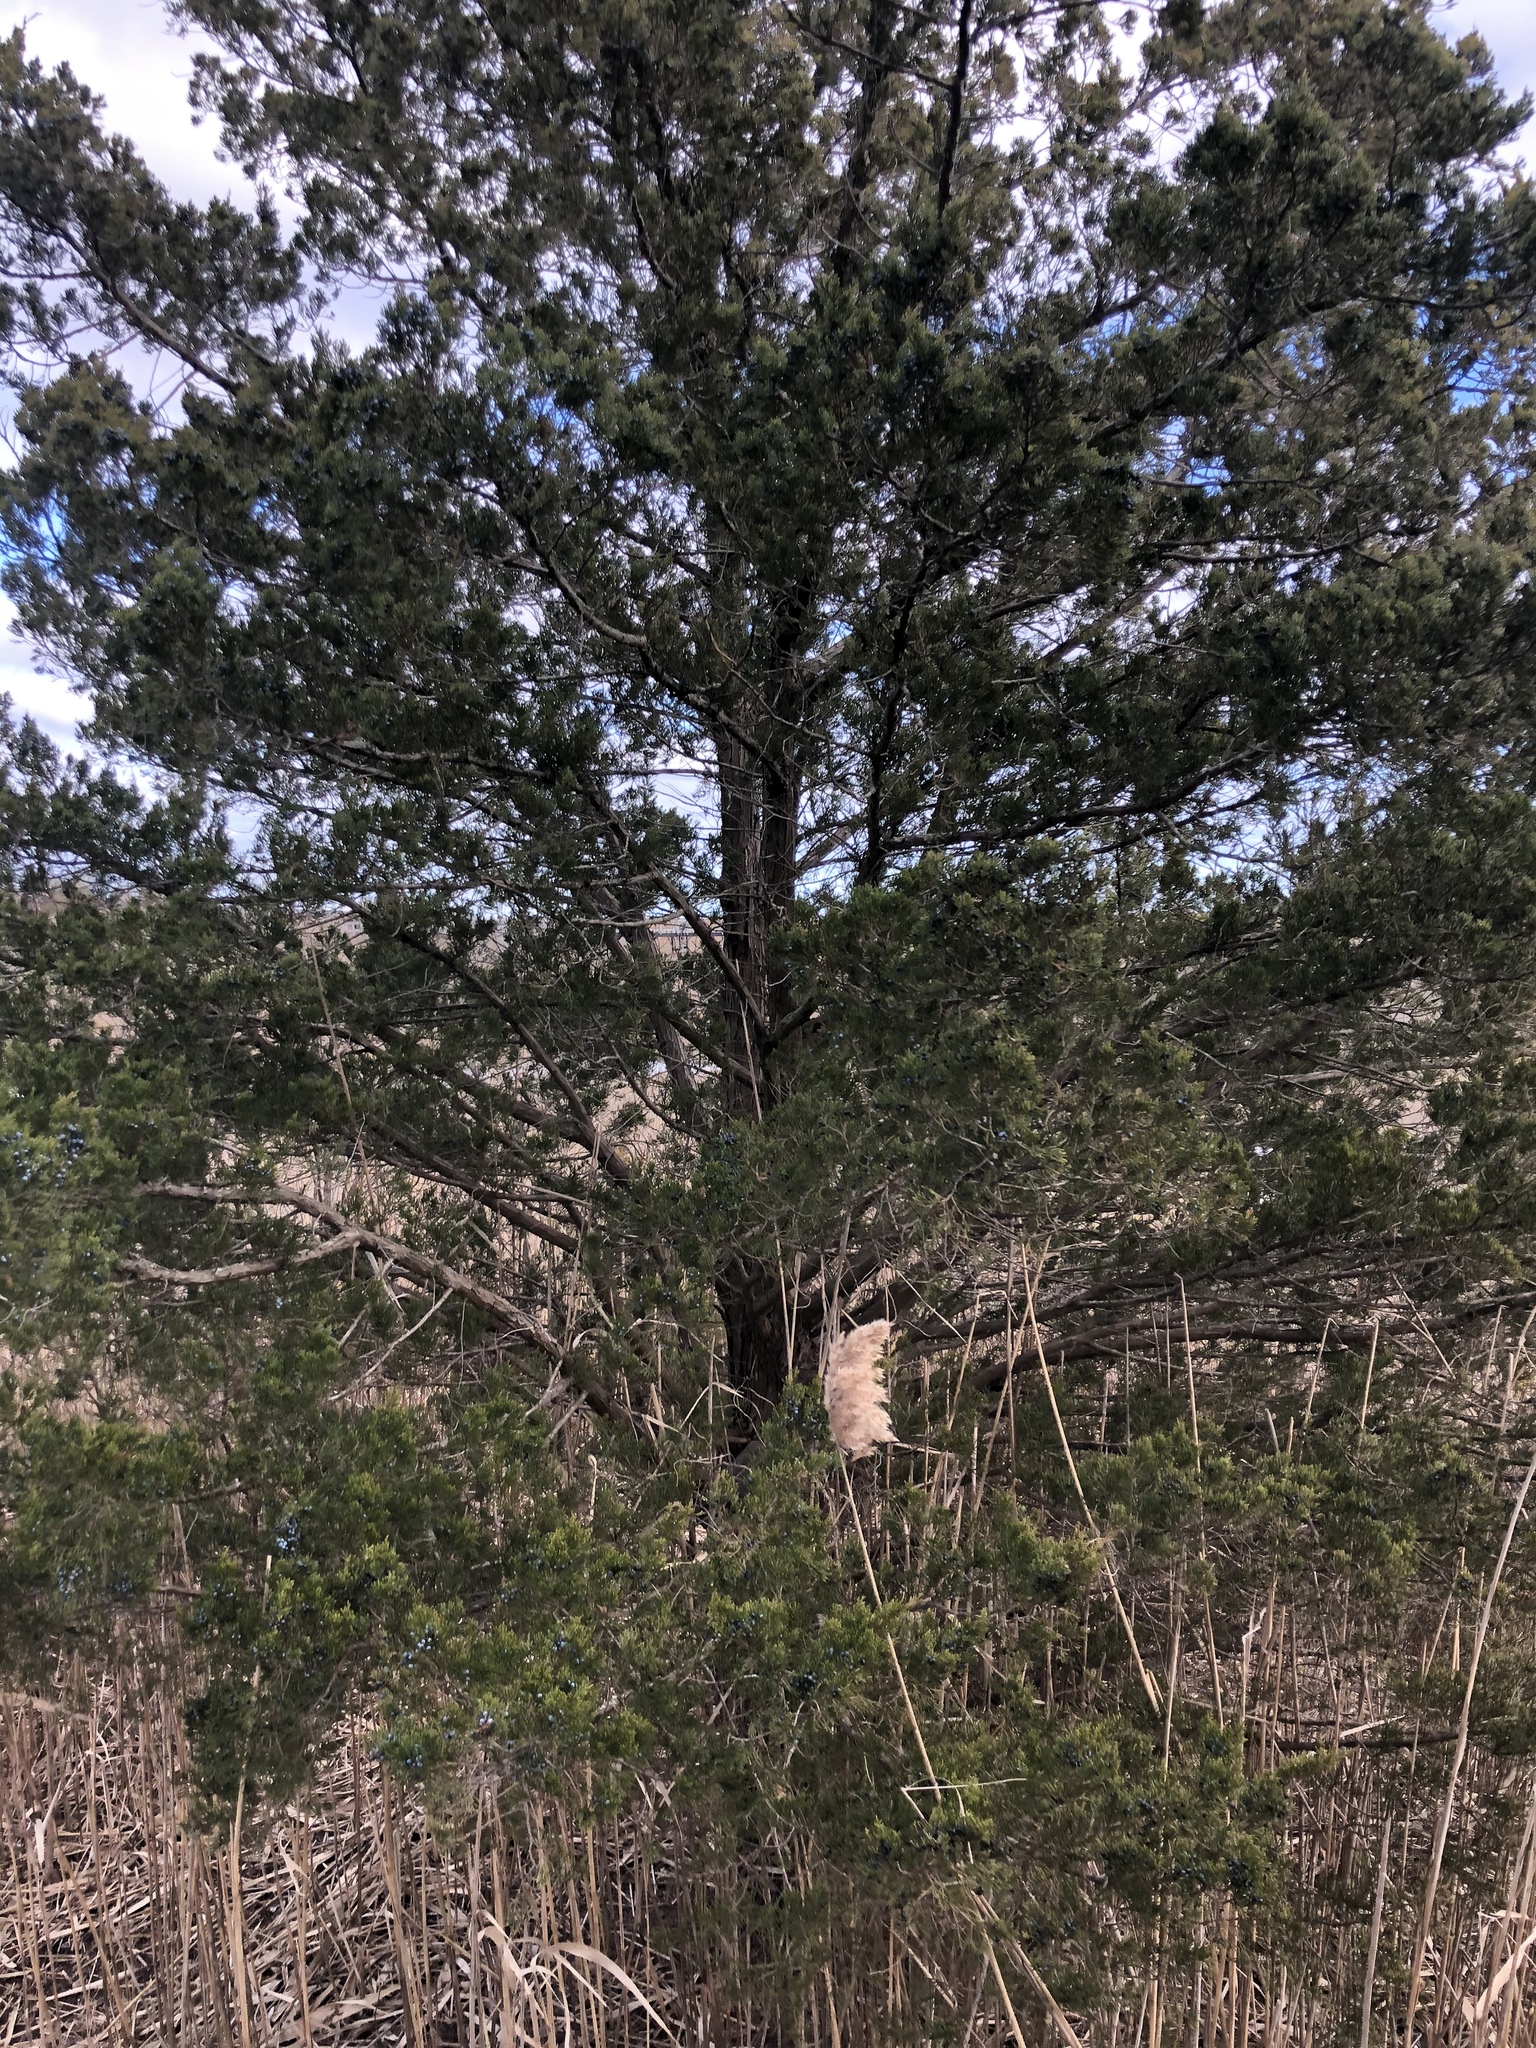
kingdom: Plantae
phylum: Tracheophyta
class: Pinopsida
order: Pinales
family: Cupressaceae
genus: Juniperus
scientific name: Juniperus virginiana
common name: Red juniper
